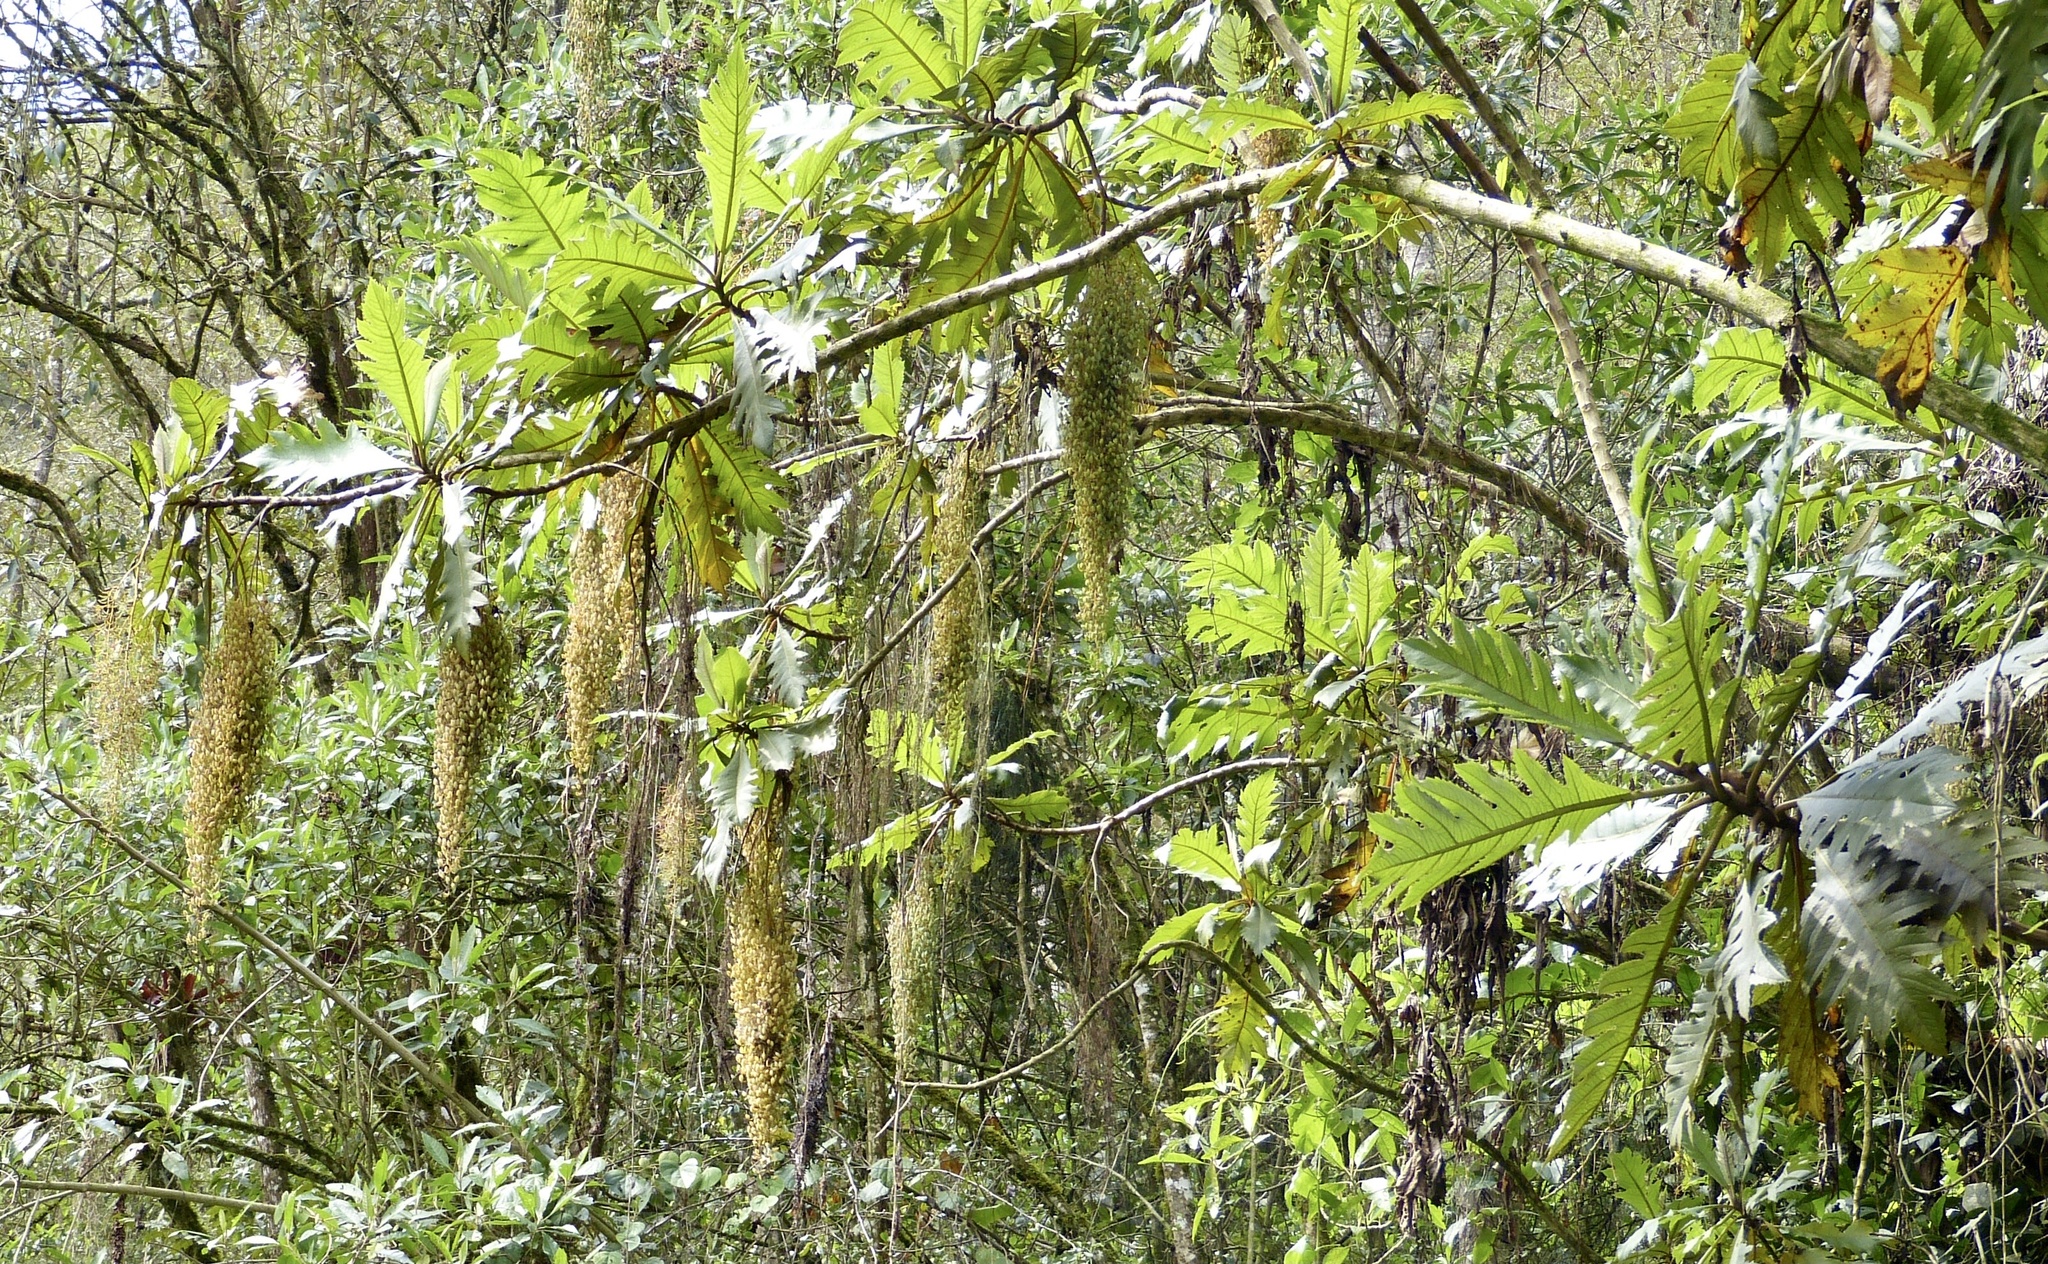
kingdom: Plantae
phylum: Tracheophyta
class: Magnoliopsida
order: Ranunculales
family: Papaveraceae
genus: Bocconia
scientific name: Bocconia frutescens
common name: Tree poppy
